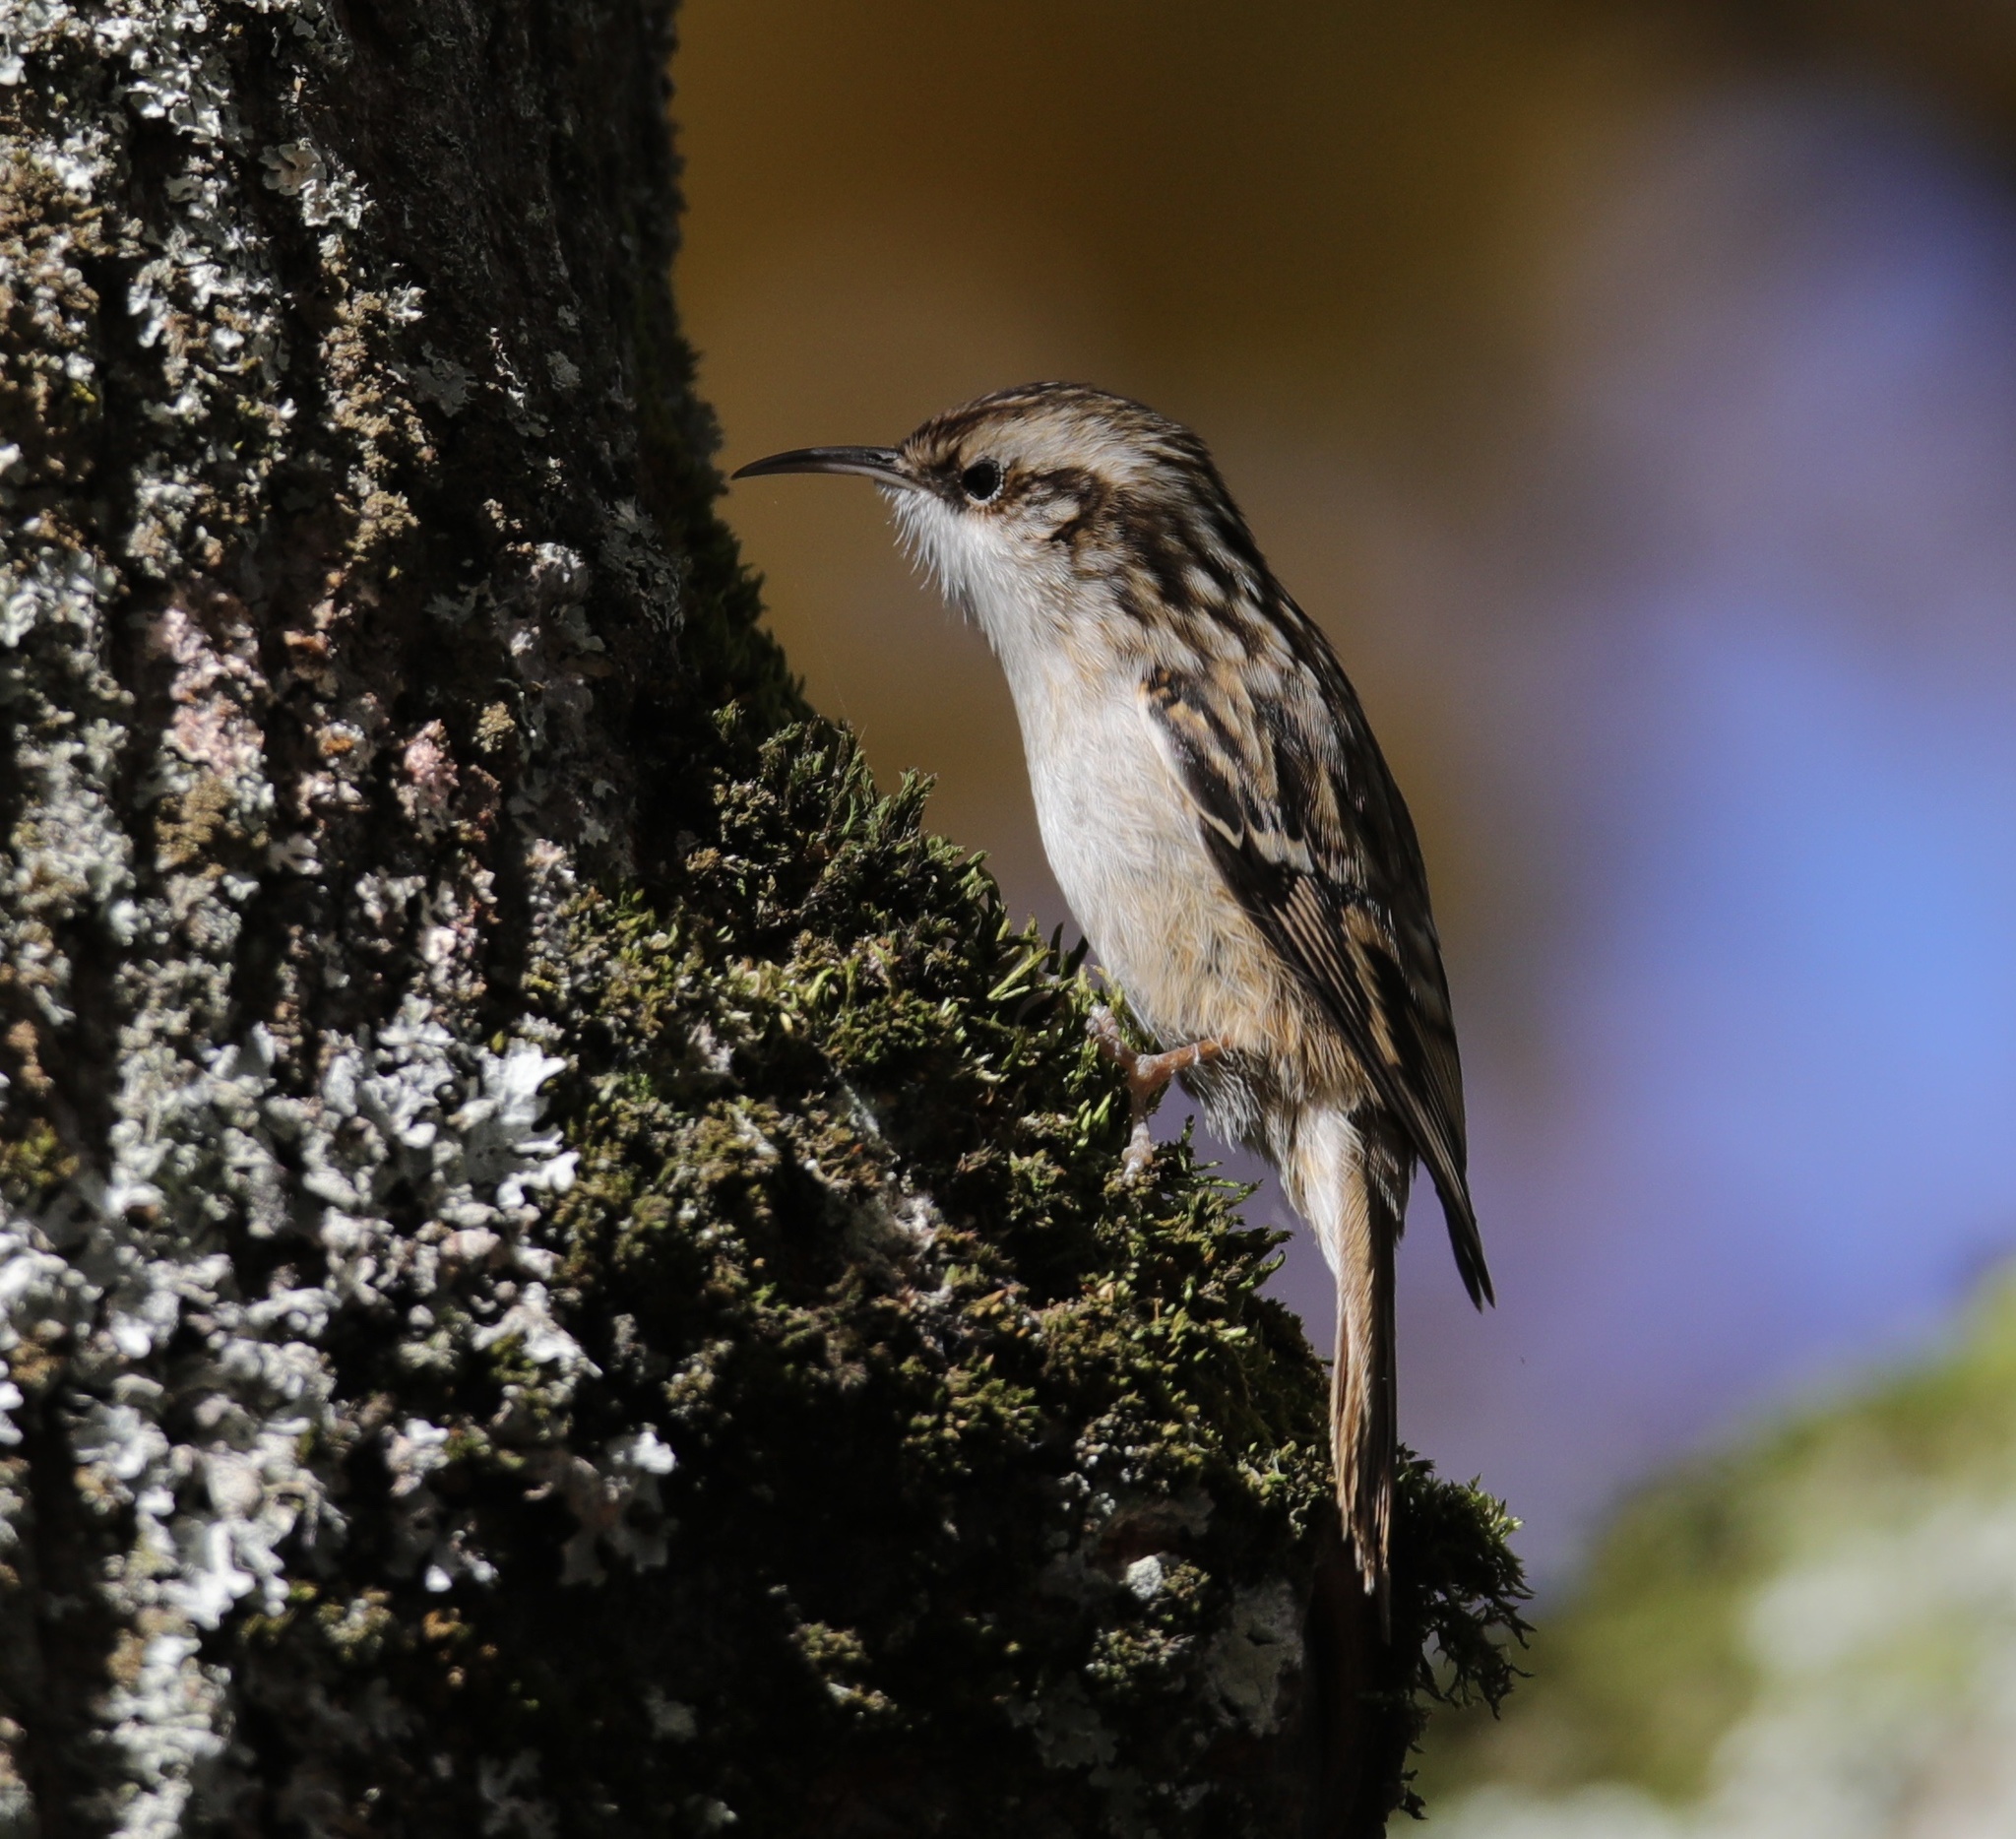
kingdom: Animalia
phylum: Chordata
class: Aves
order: Passeriformes
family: Certhiidae
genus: Certhia
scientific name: Certhia brachydactyla
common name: Short-toed treecreeper
